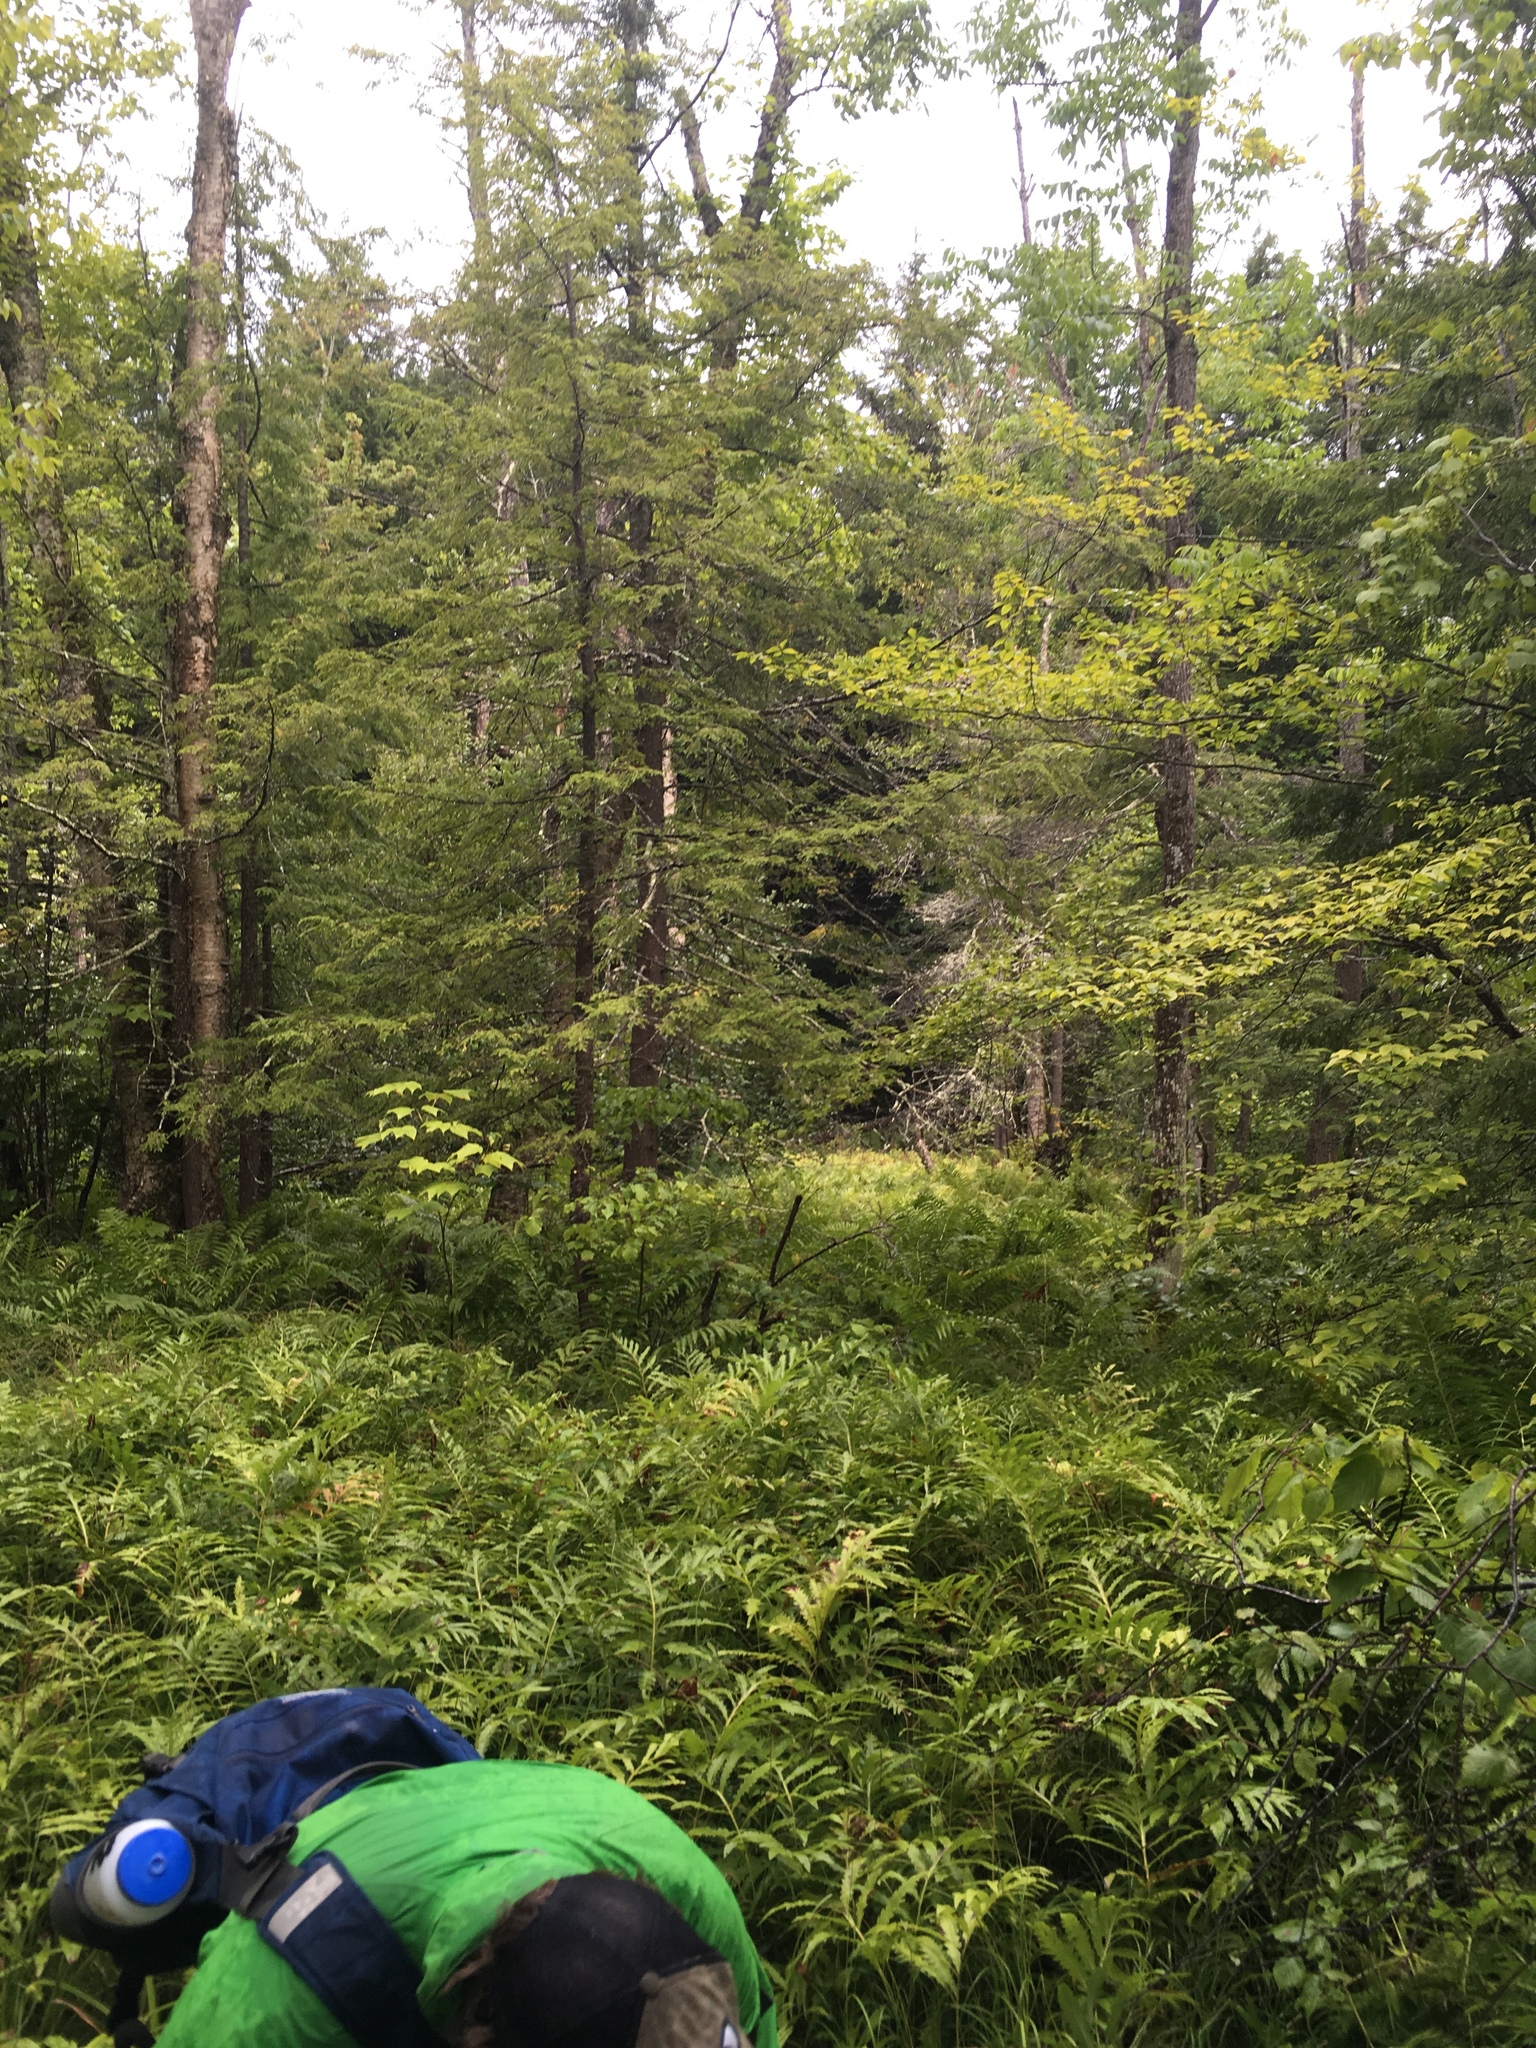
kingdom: Plantae
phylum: Tracheophyta
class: Polypodiopsida
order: Polypodiales
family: Onocleaceae
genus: Onoclea
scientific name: Onoclea sensibilis
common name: Sensitive fern
